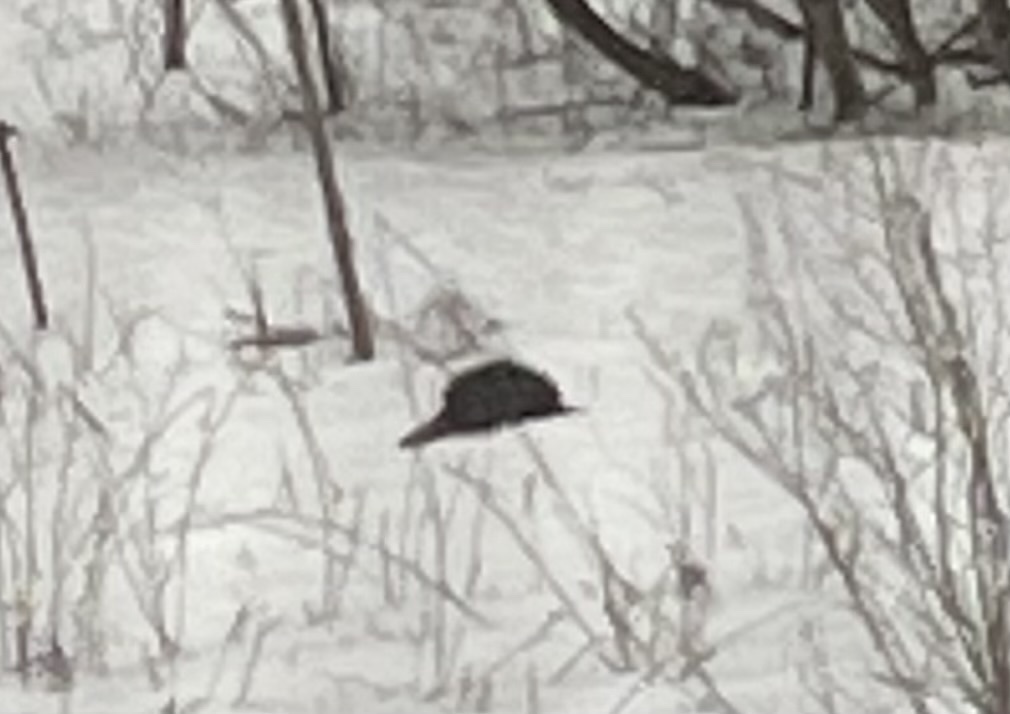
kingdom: Animalia
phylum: Chordata
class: Mammalia
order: Rodentia
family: Erethizontidae
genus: Erethizon
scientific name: Erethizon dorsatus
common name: North american porcupine
